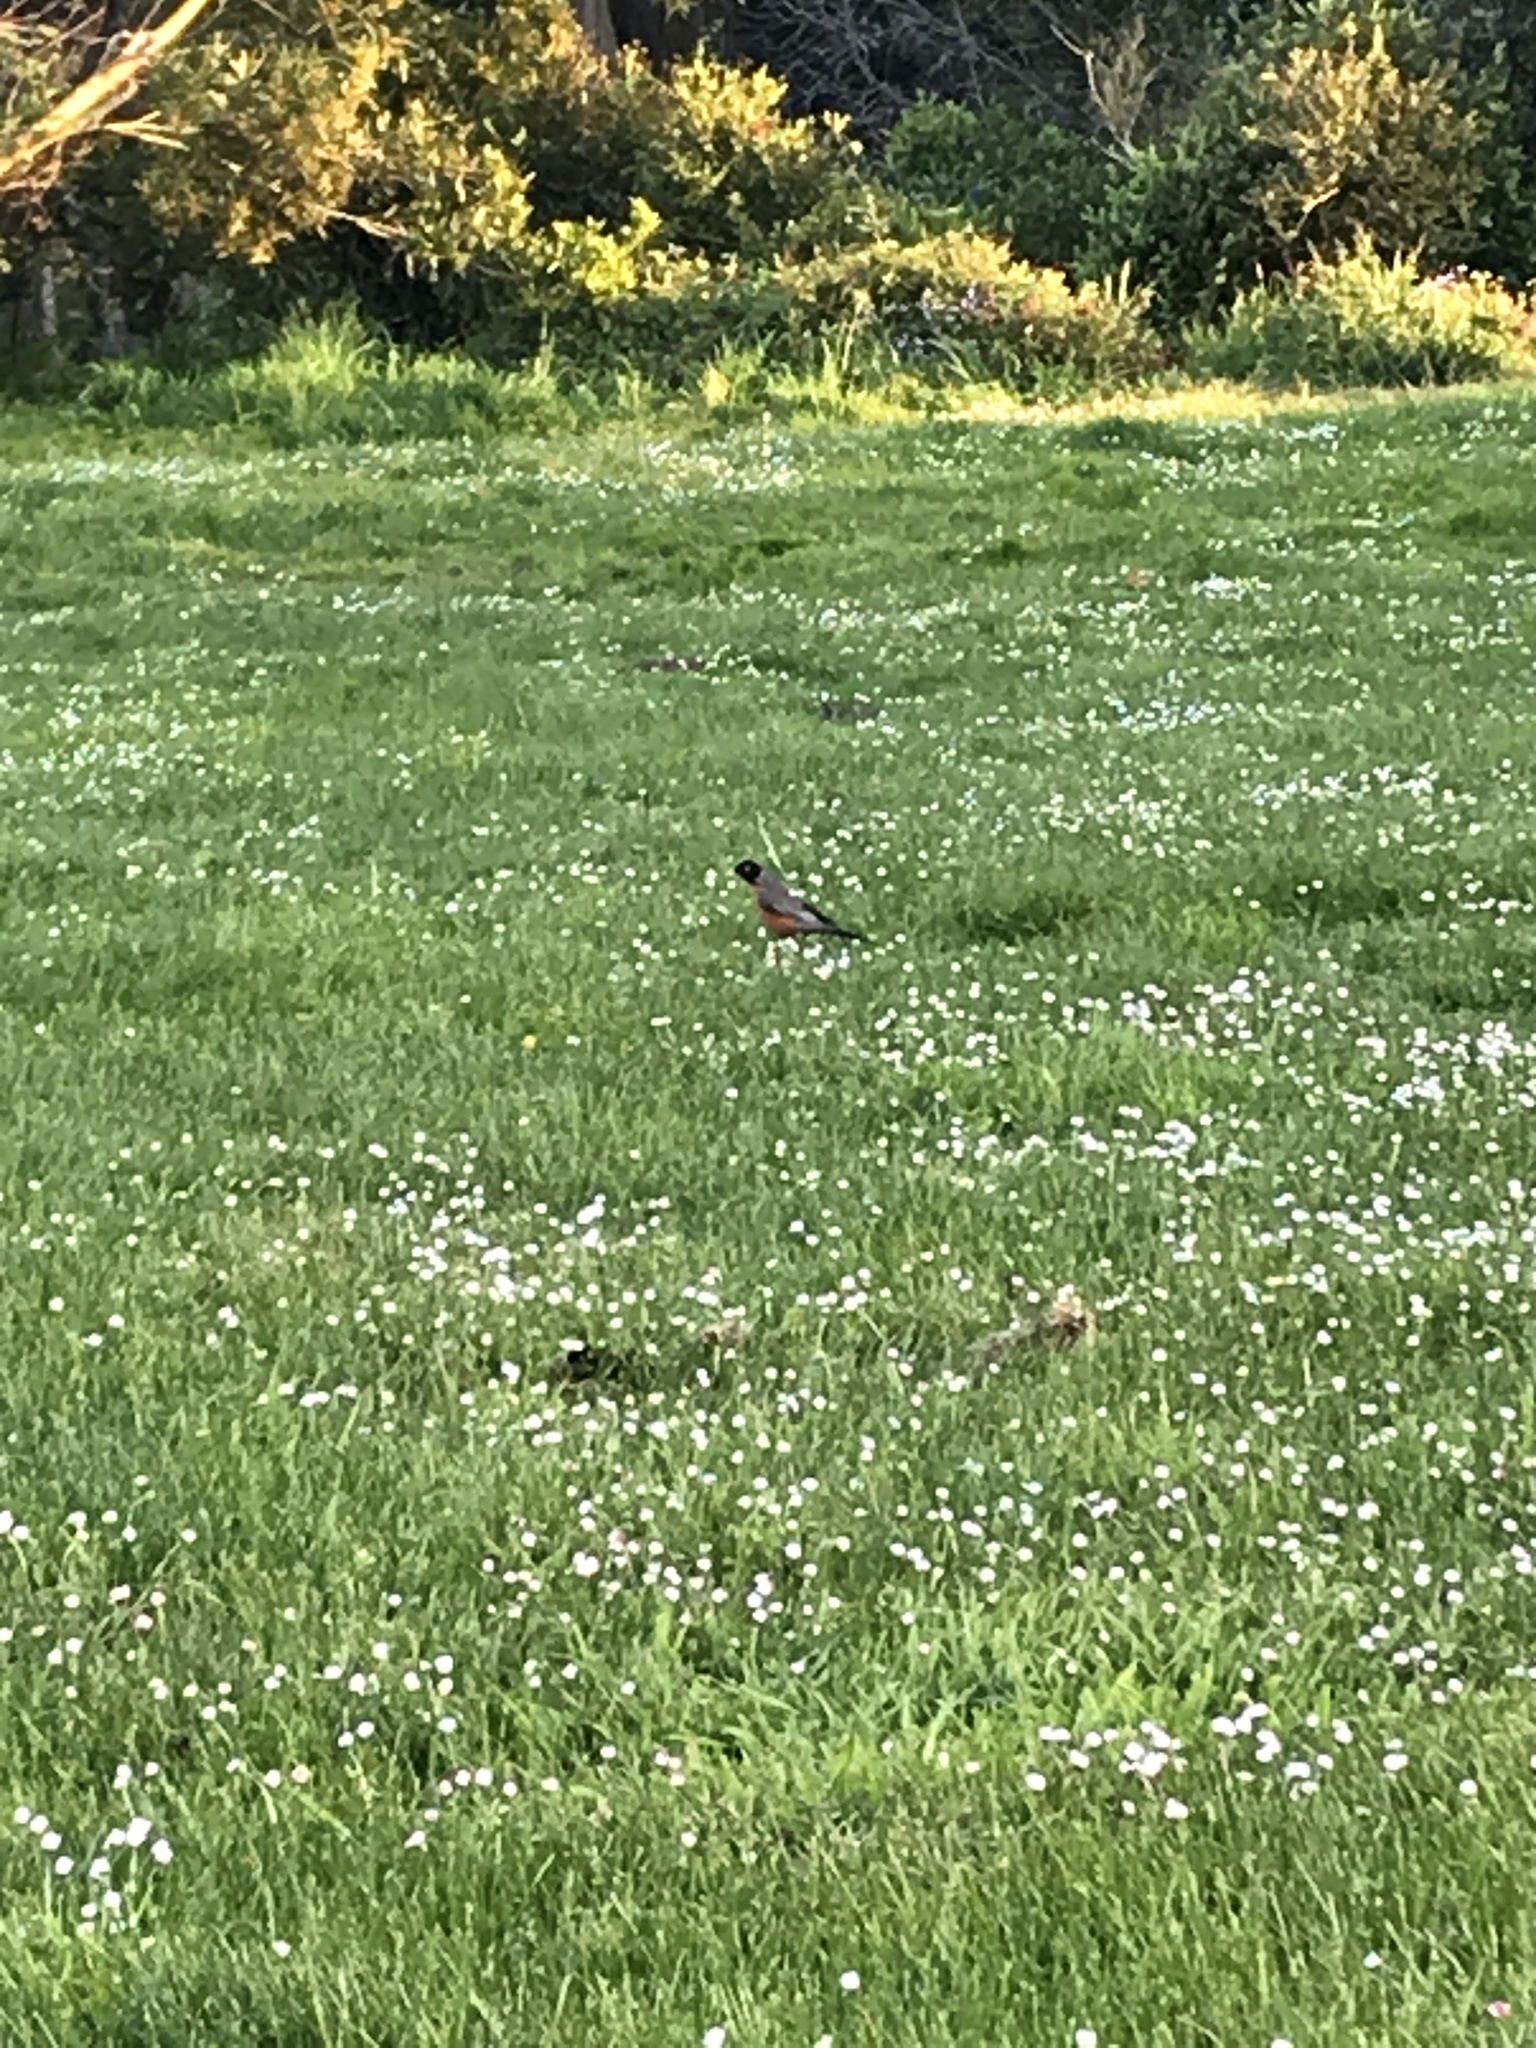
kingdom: Animalia
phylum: Chordata
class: Aves
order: Passeriformes
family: Turdidae
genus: Turdus
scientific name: Turdus migratorius
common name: American robin
